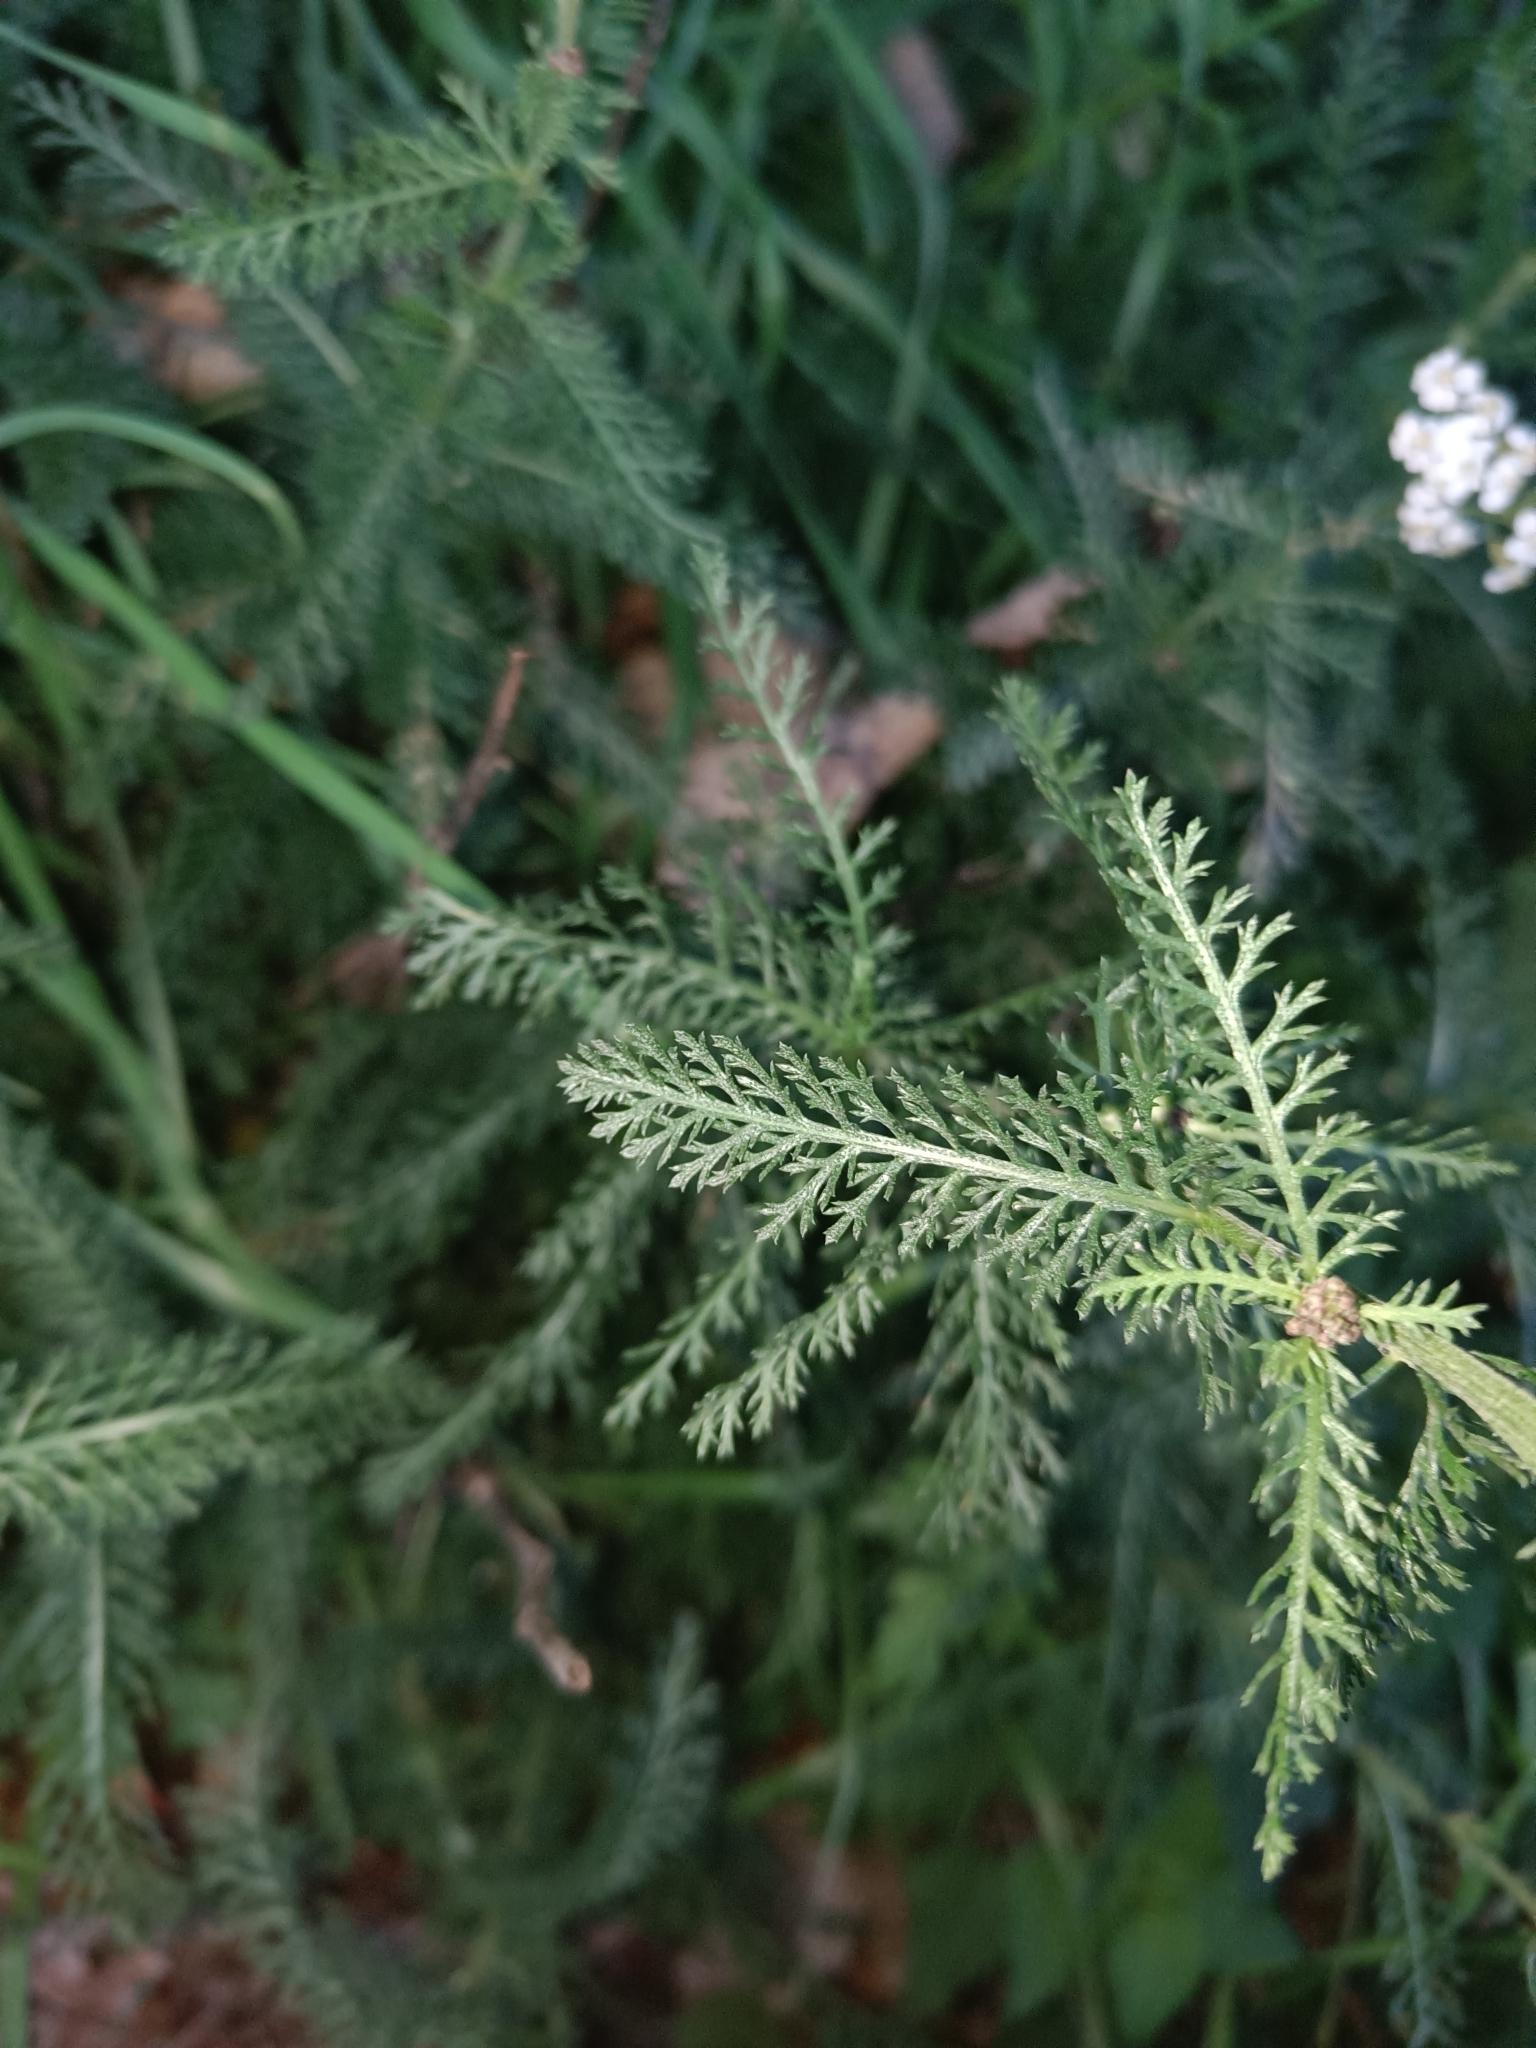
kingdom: Plantae
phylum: Tracheophyta
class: Magnoliopsida
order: Asterales
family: Asteraceae
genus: Achillea
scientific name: Achillea millefolium
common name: Yarrow
